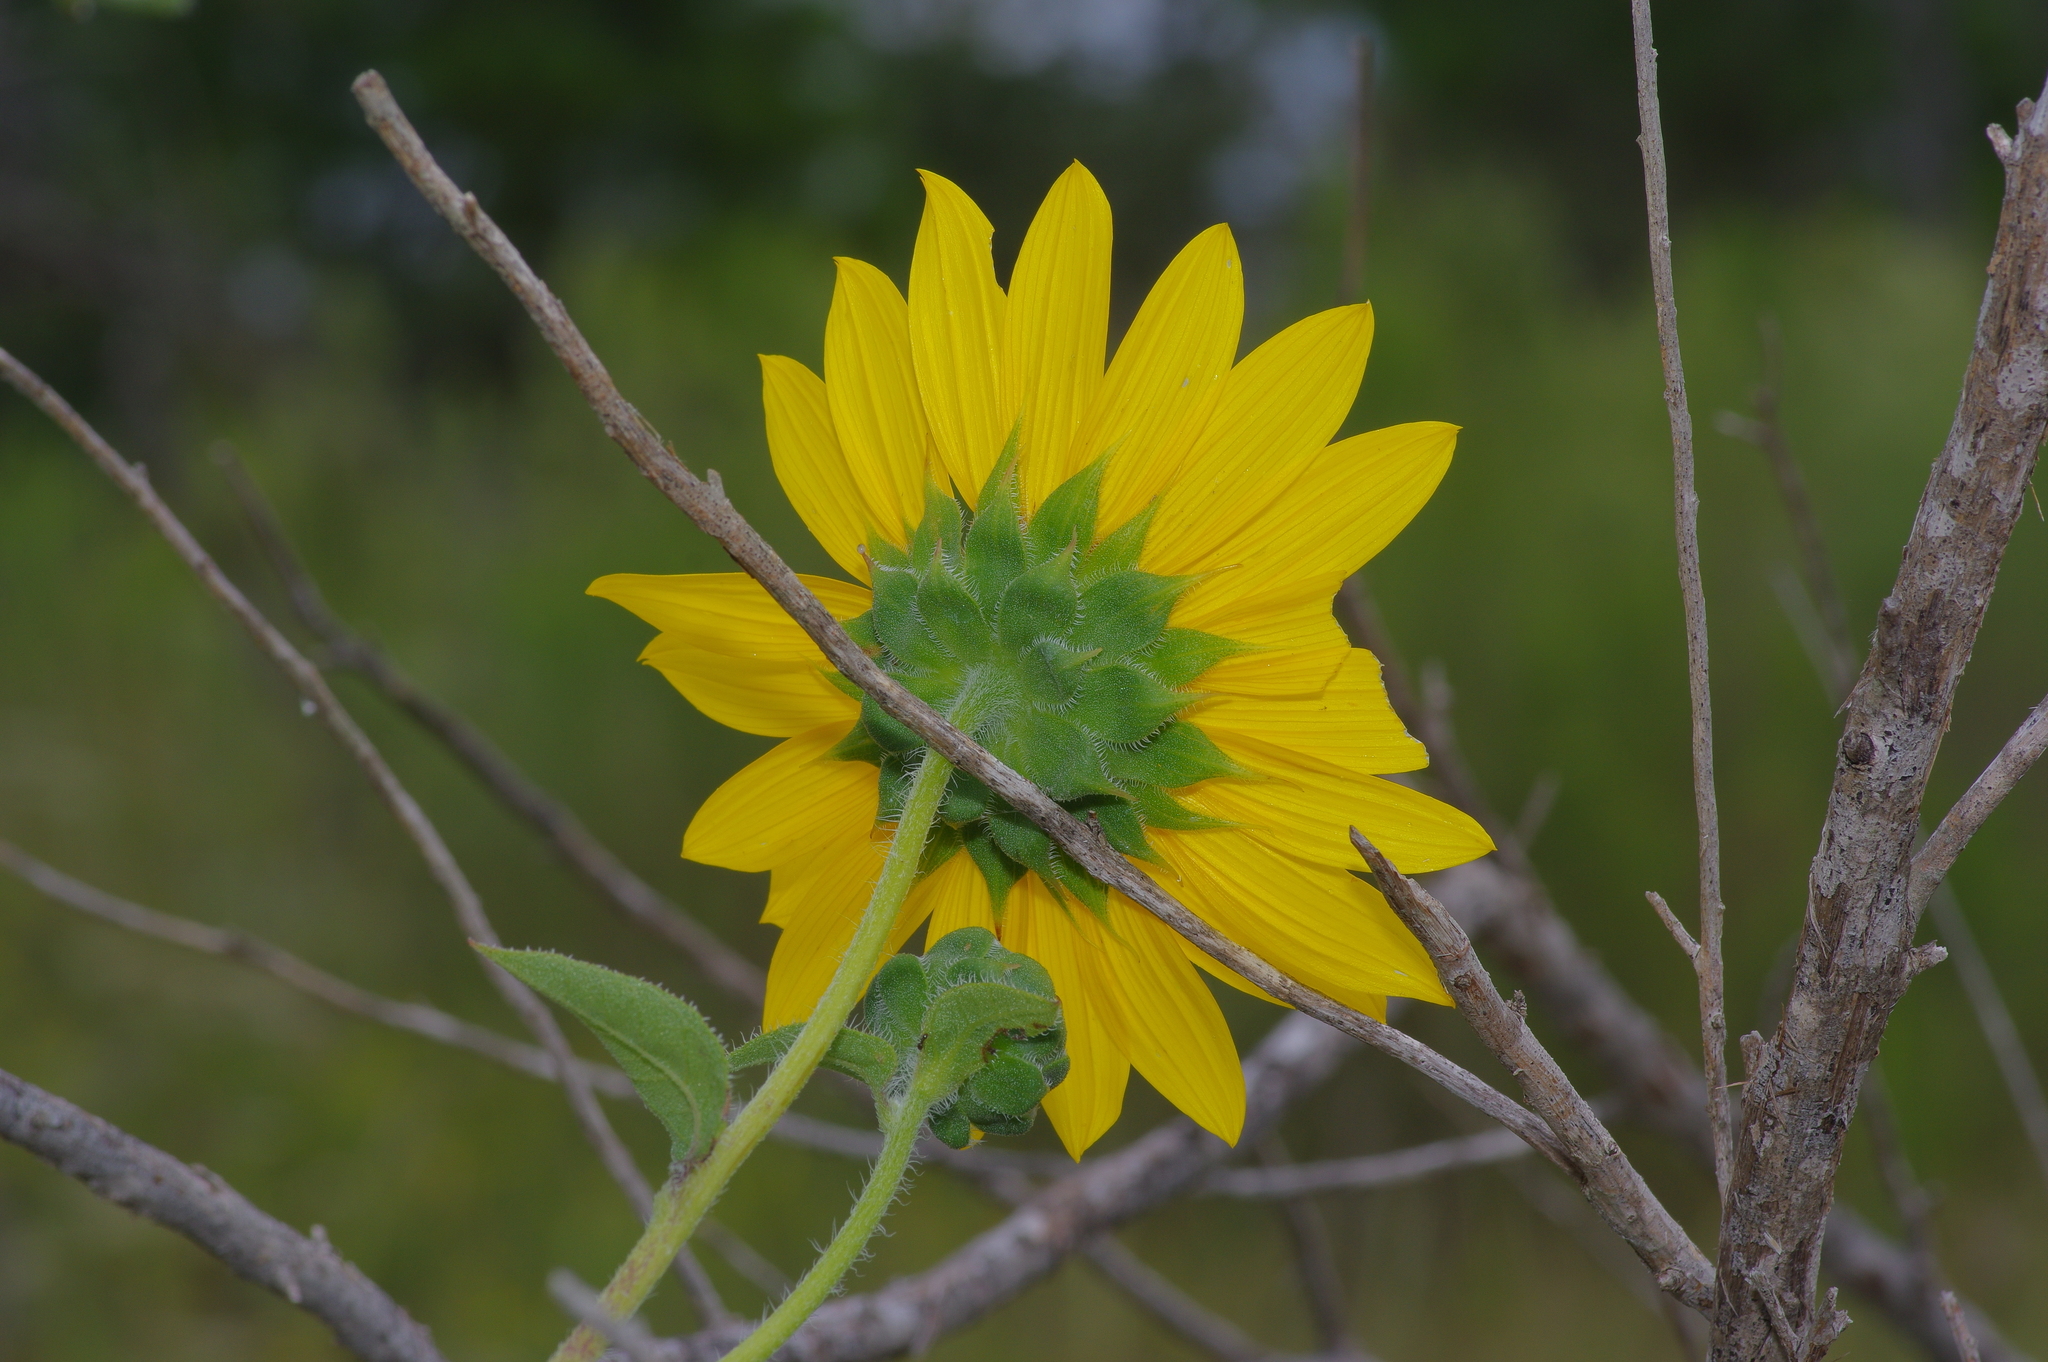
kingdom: Plantae
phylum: Tracheophyta
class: Magnoliopsida
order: Asterales
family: Asteraceae
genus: Helianthus
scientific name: Helianthus annuus
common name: Sunflower
